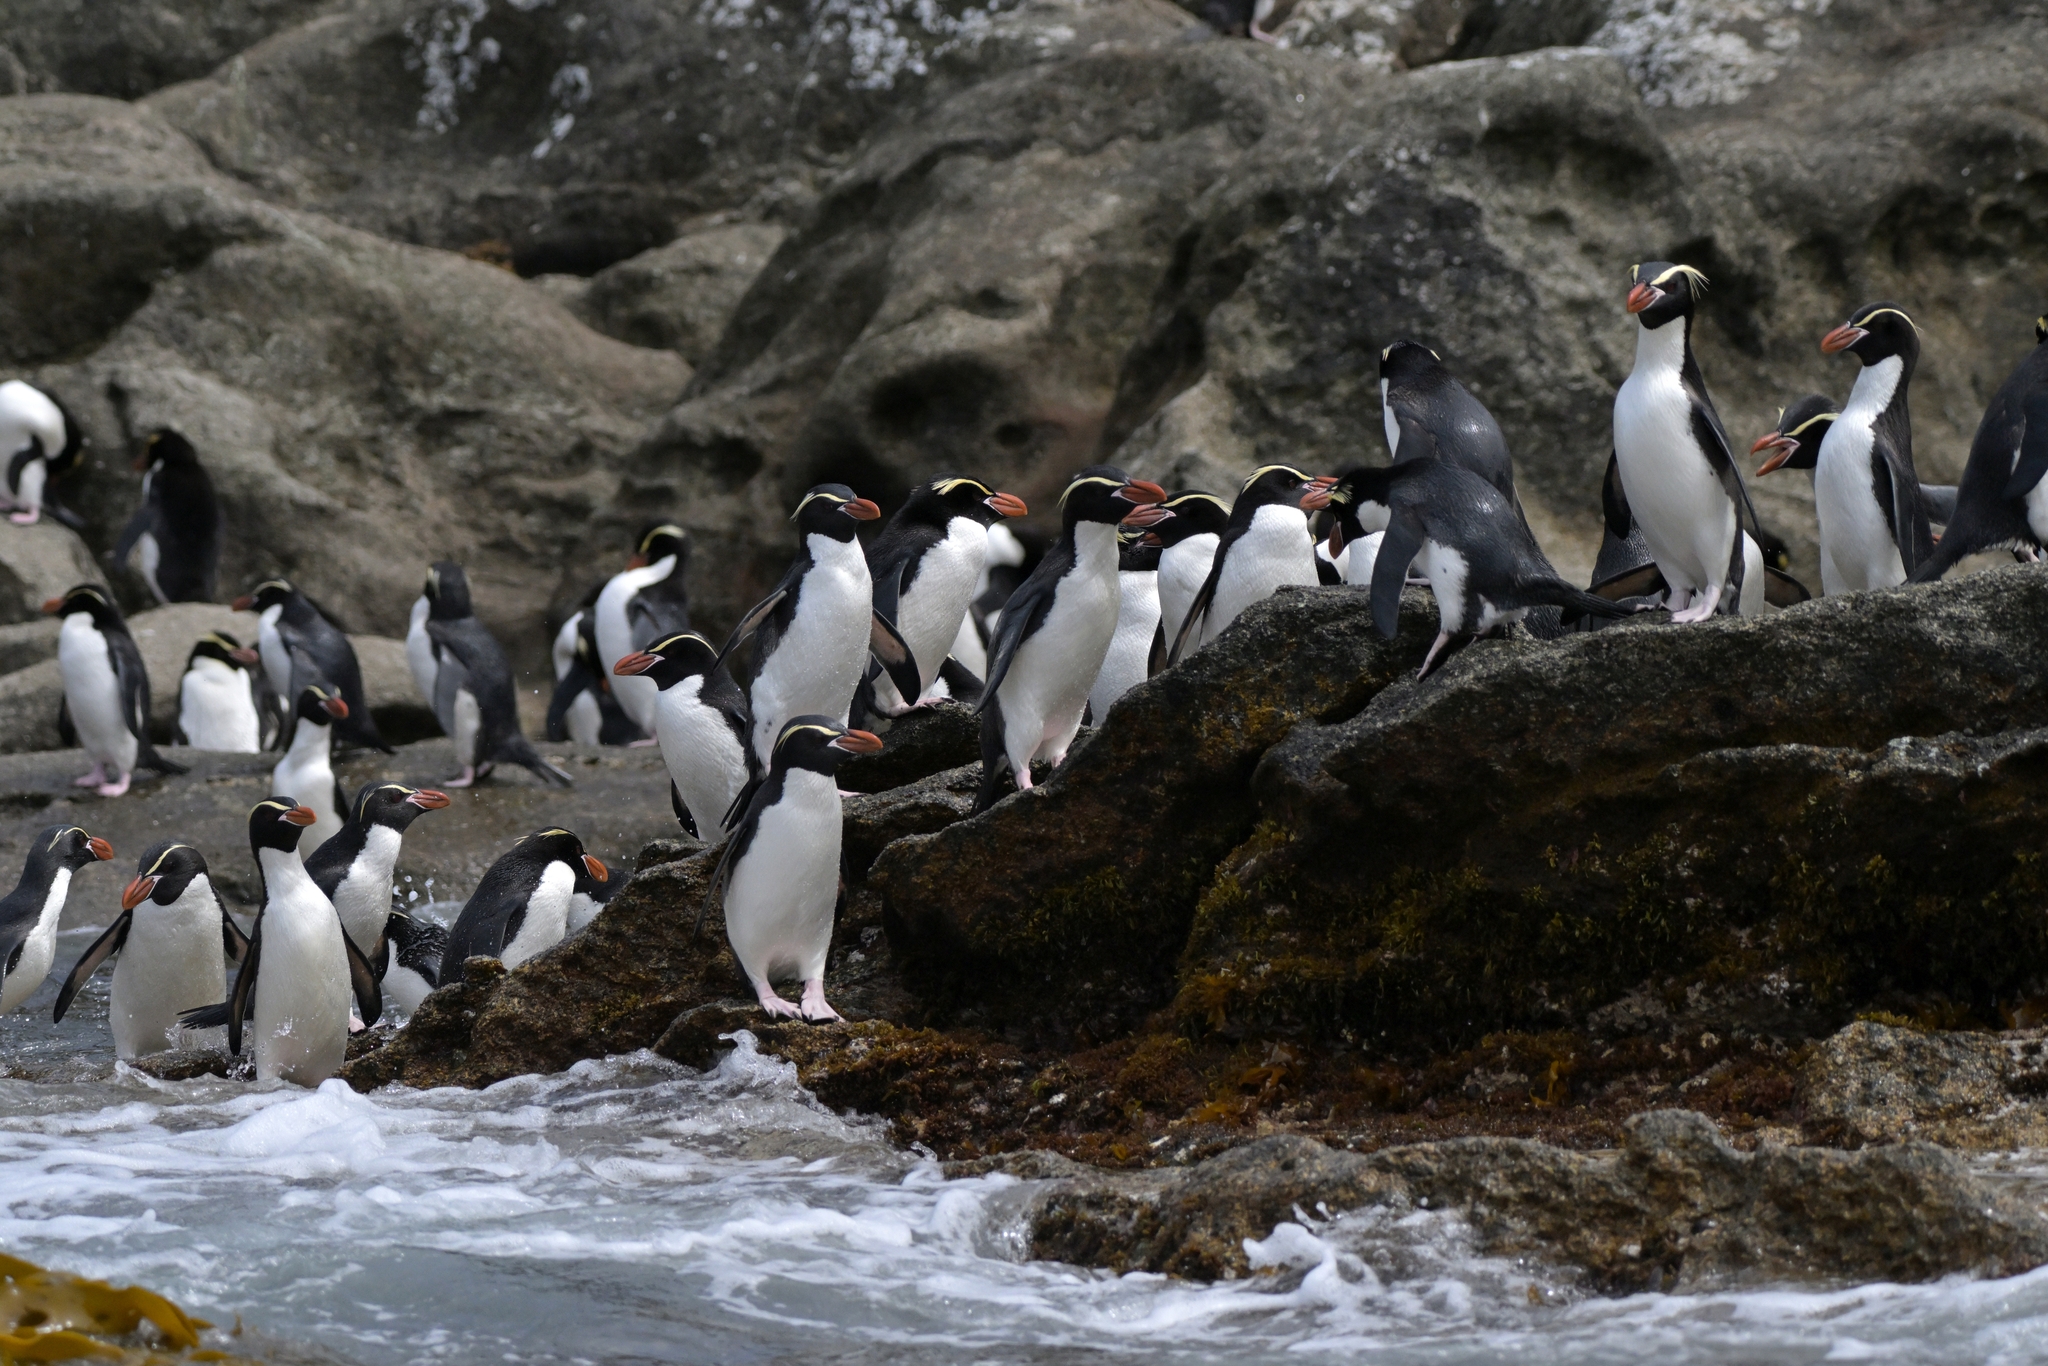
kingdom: Animalia
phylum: Chordata
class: Aves
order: Sphenisciformes
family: Spheniscidae
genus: Eudyptes
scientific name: Eudyptes robustus
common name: Snares penguin
